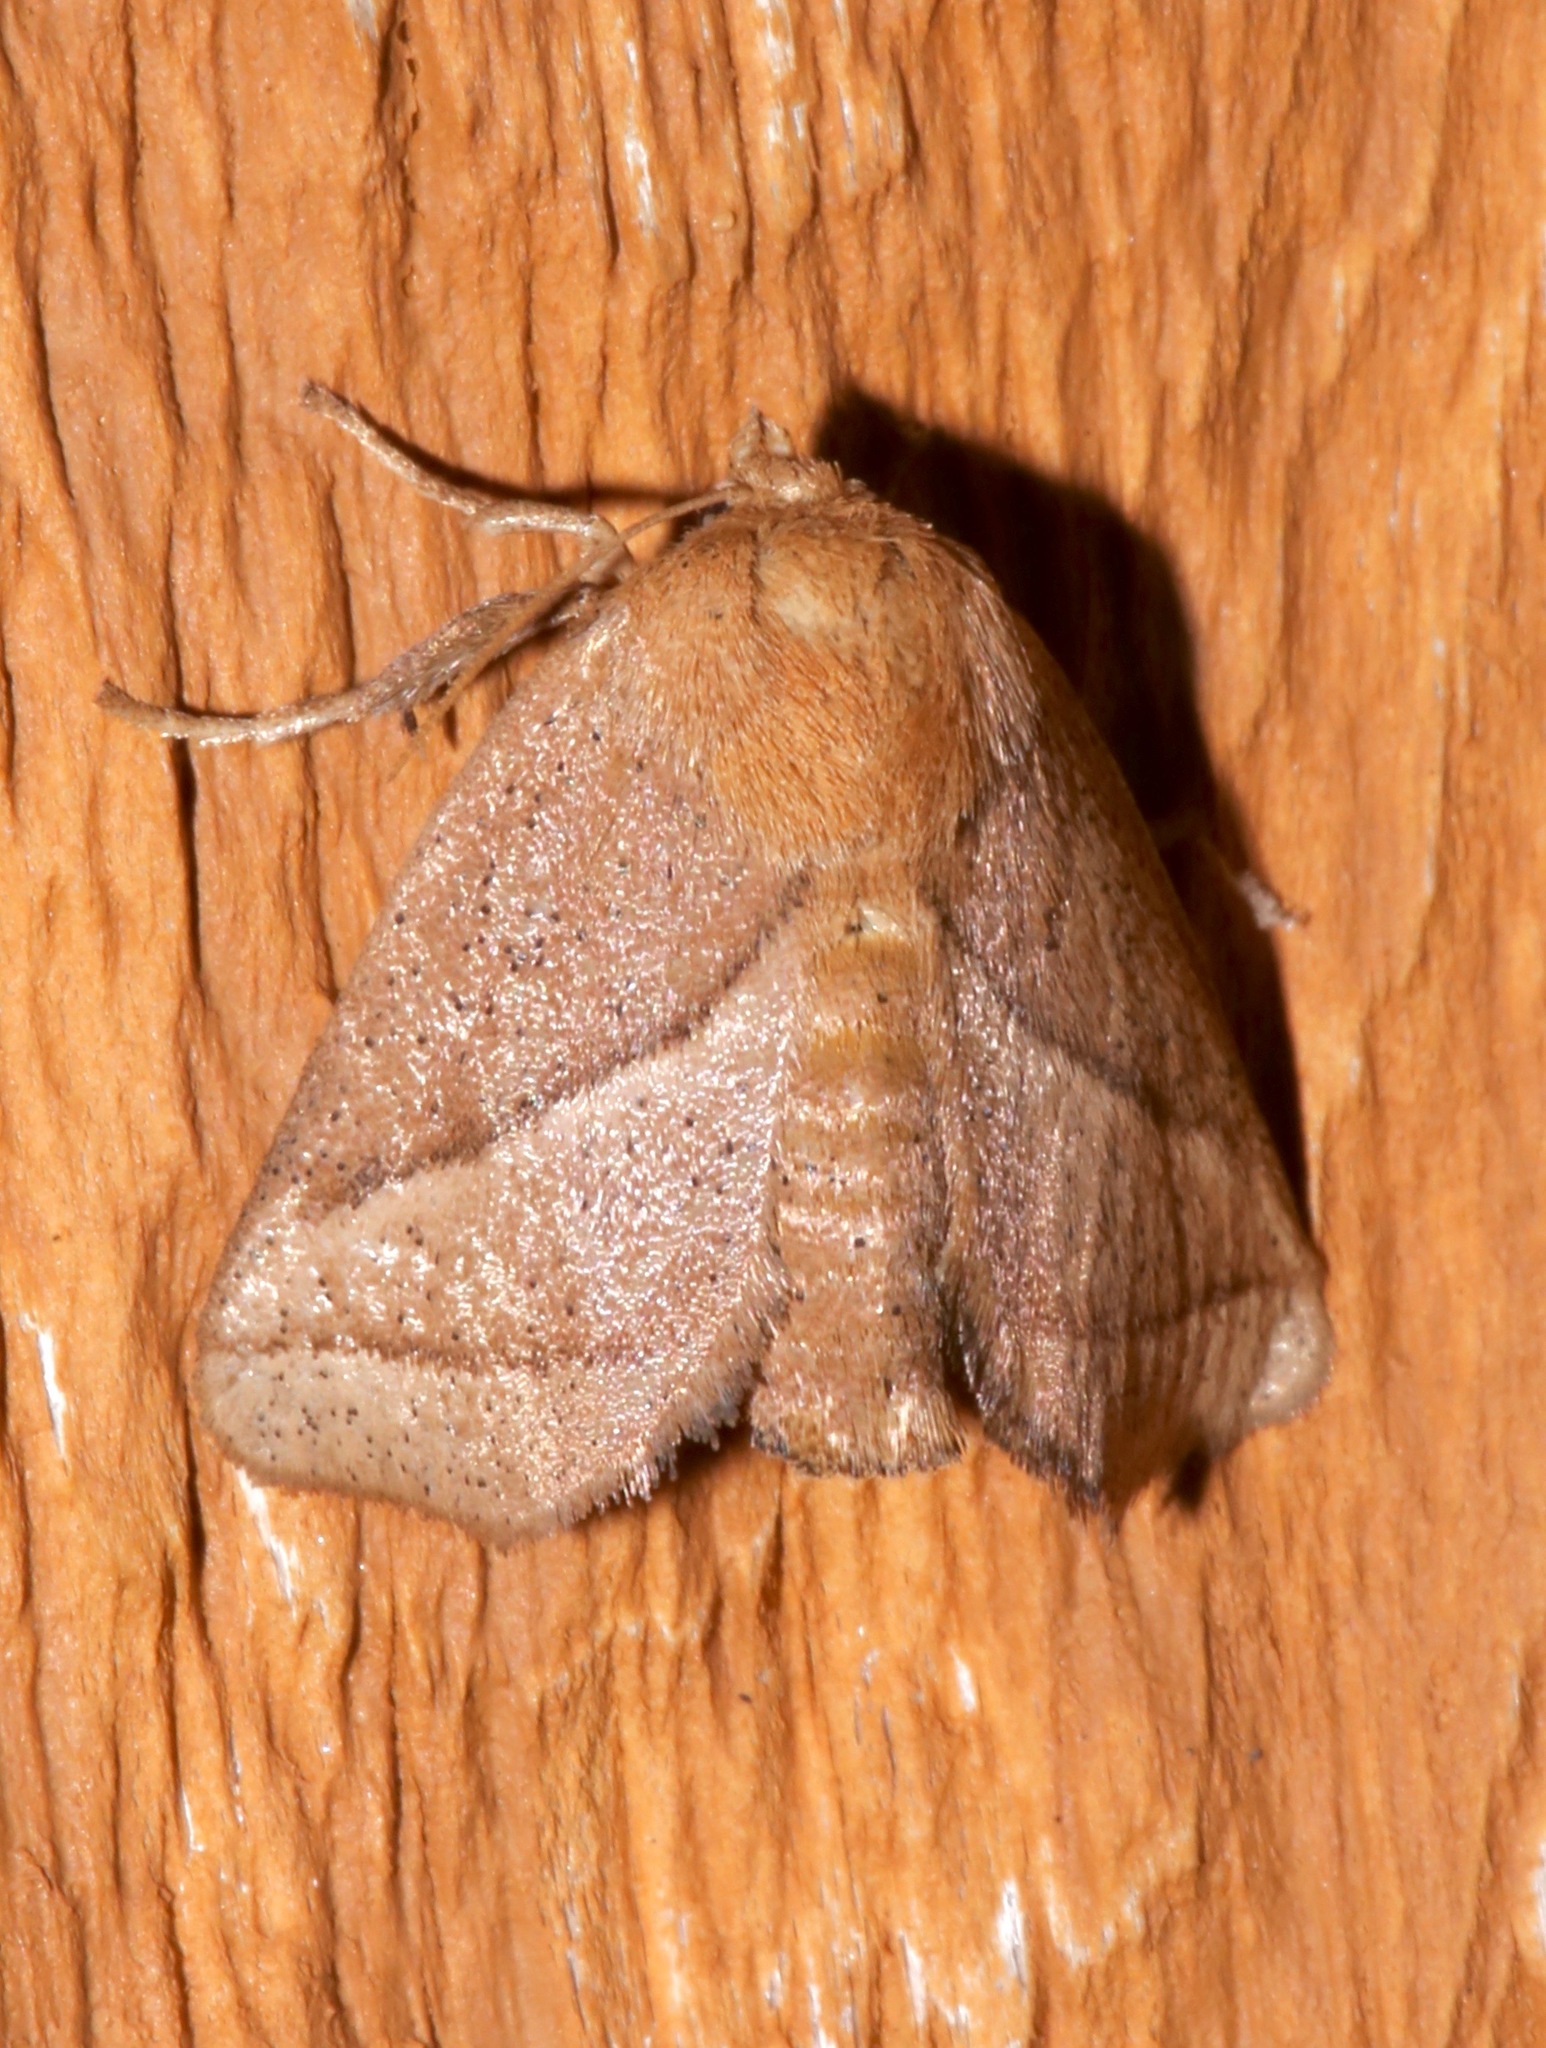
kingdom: Animalia
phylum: Arthropoda
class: Insecta
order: Lepidoptera
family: Limacodidae
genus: Natada
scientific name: Natada nasoni
